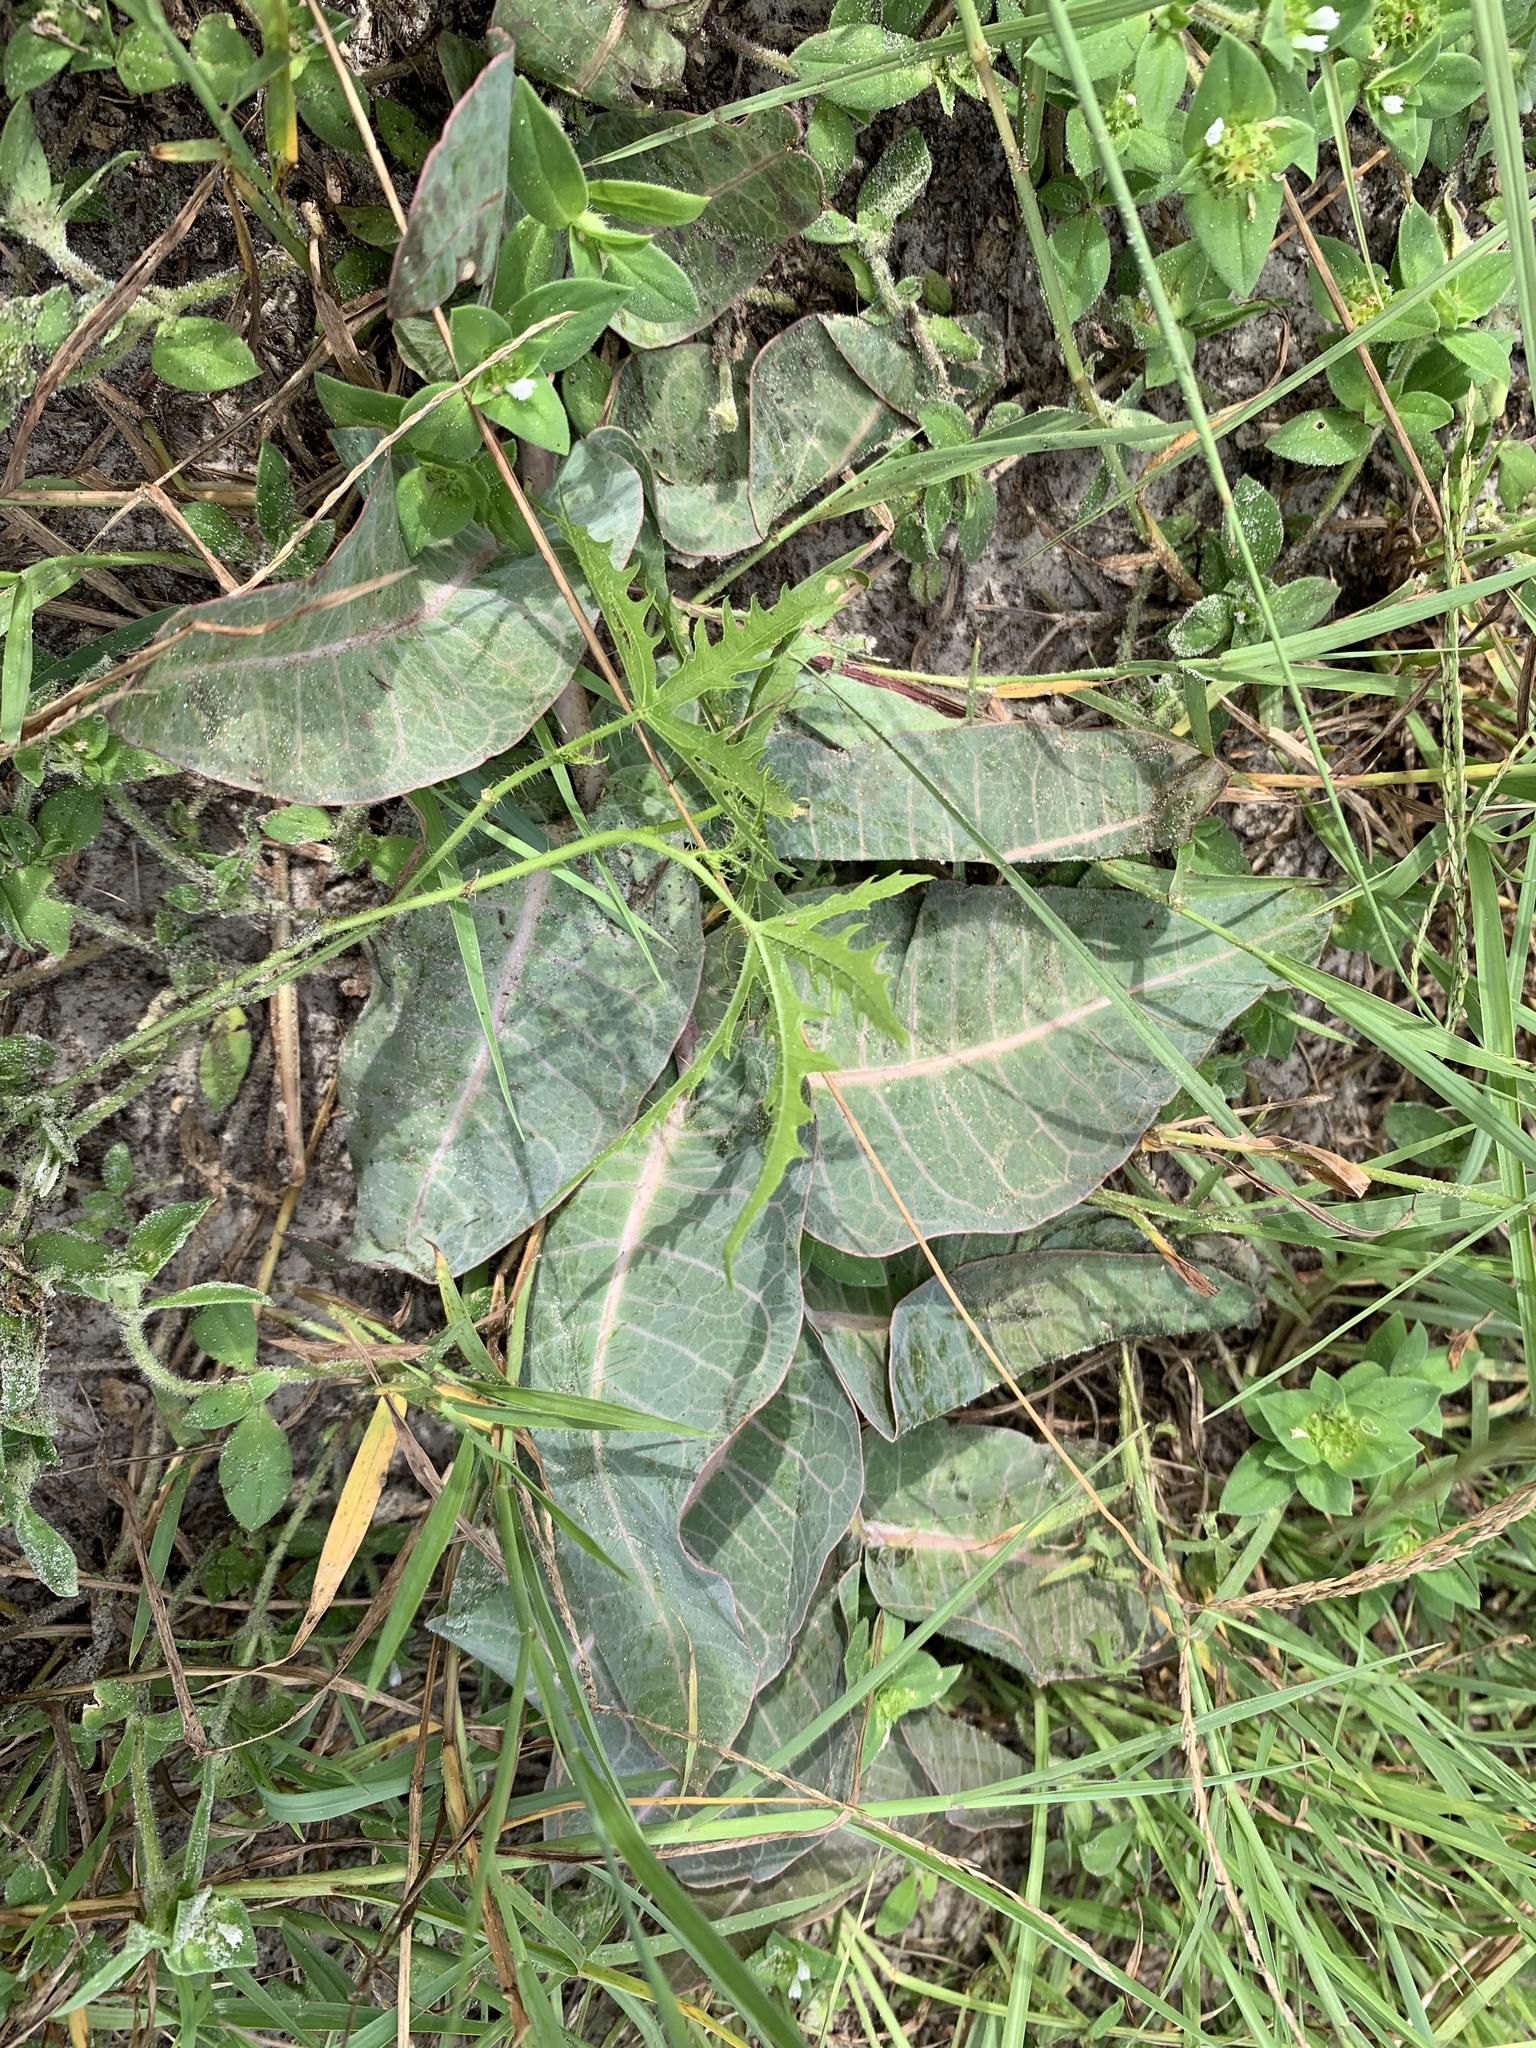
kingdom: Plantae
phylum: Tracheophyta
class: Magnoliopsida
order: Gentianales
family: Apocynaceae
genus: Asclepias
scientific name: Asclepias humistrata
